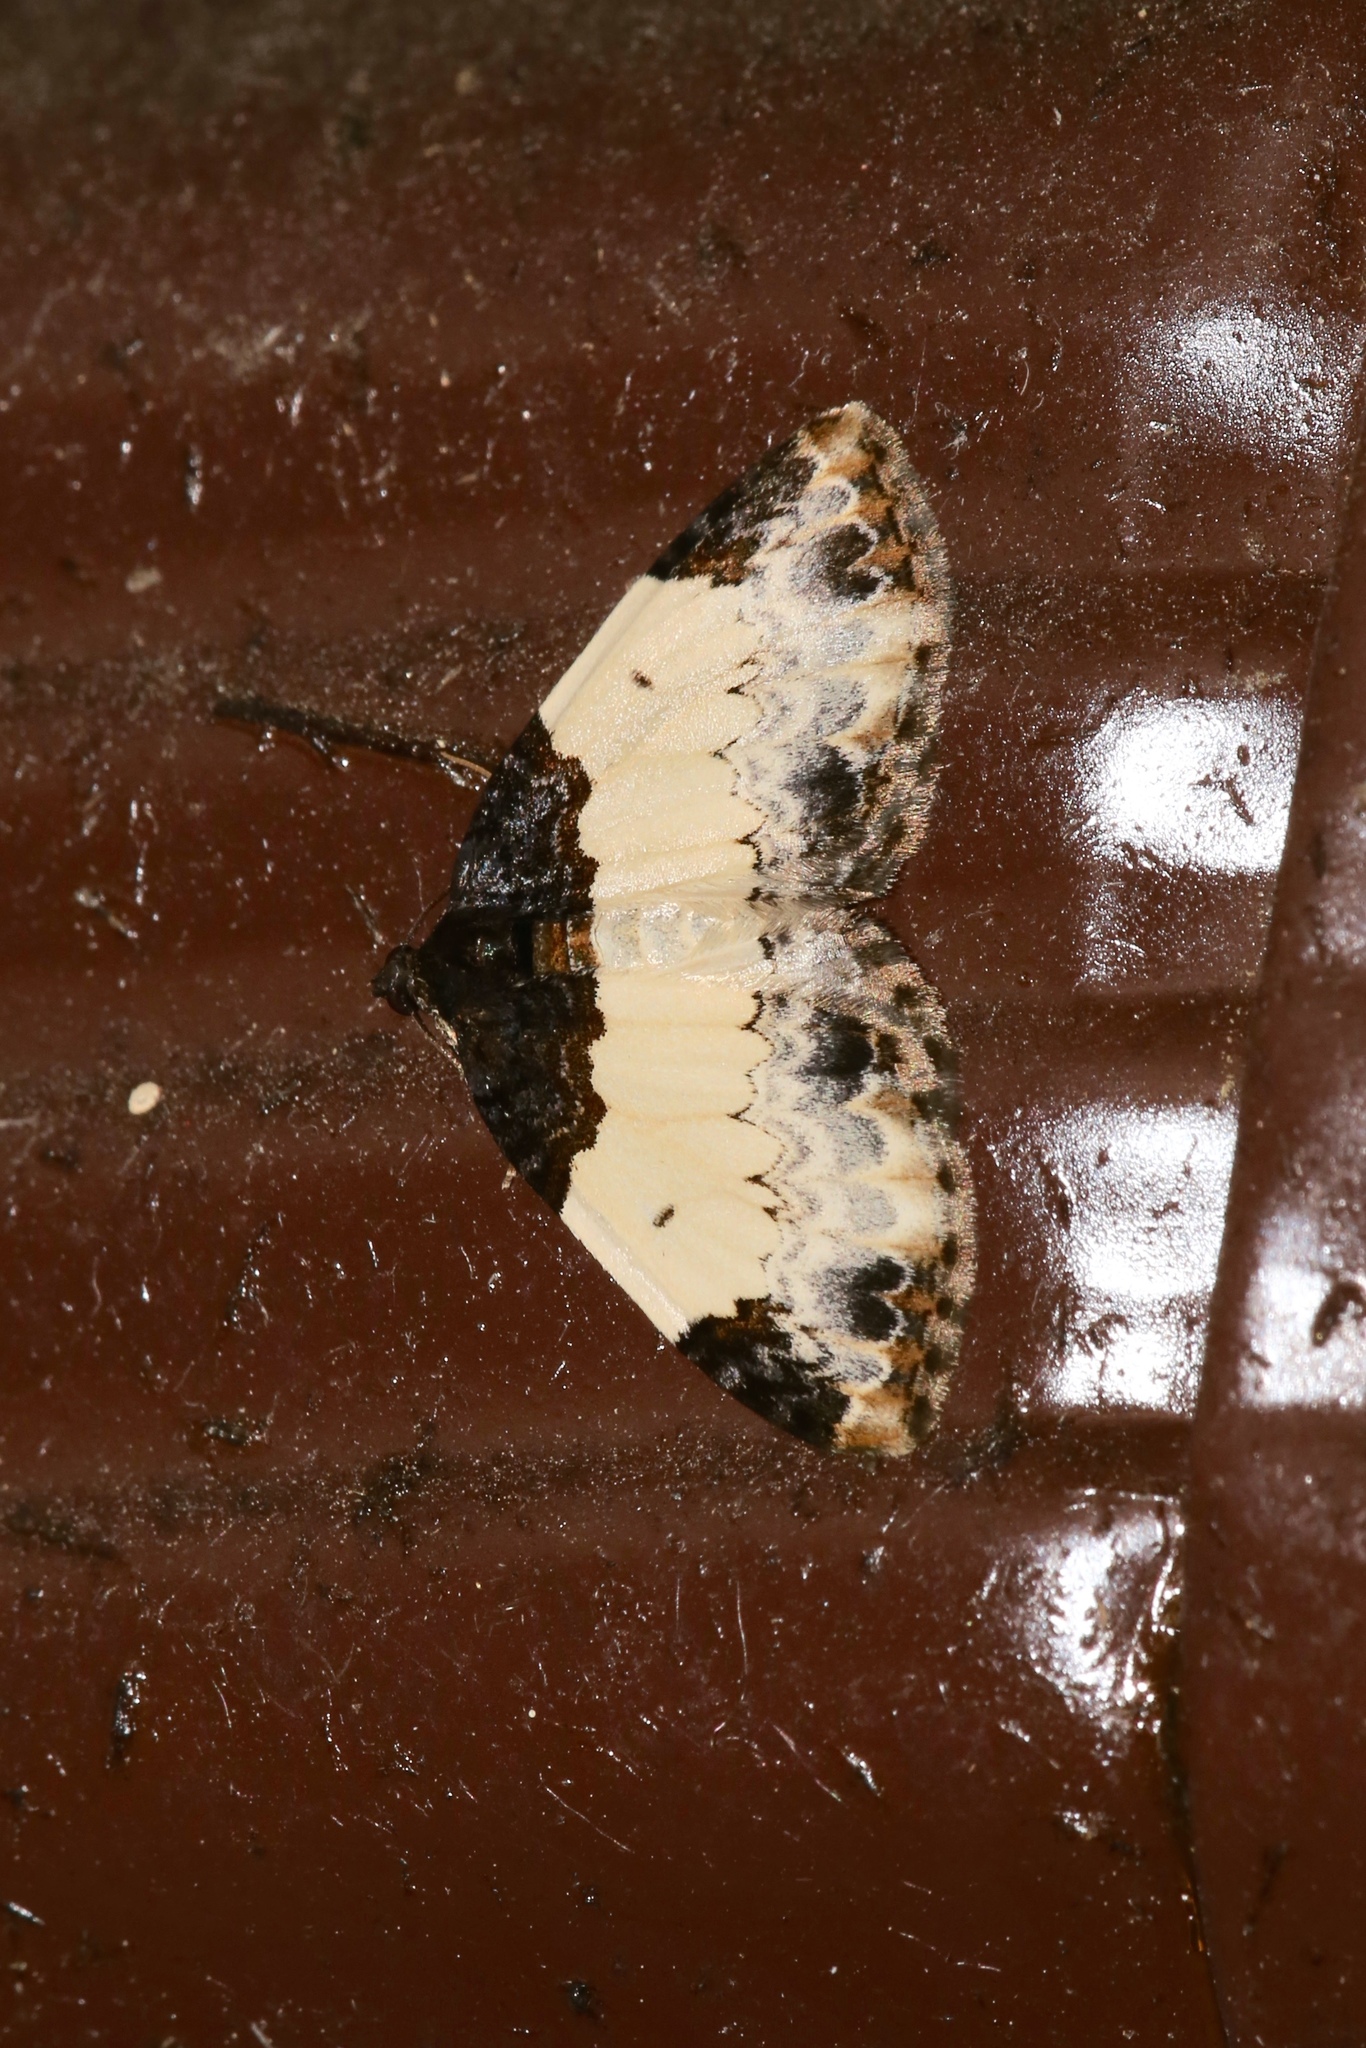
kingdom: Animalia
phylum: Arthropoda
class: Insecta
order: Lepidoptera
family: Geometridae
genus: Mesoleuca
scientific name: Mesoleuca ruficillata
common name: White-ribboned carpet moth
